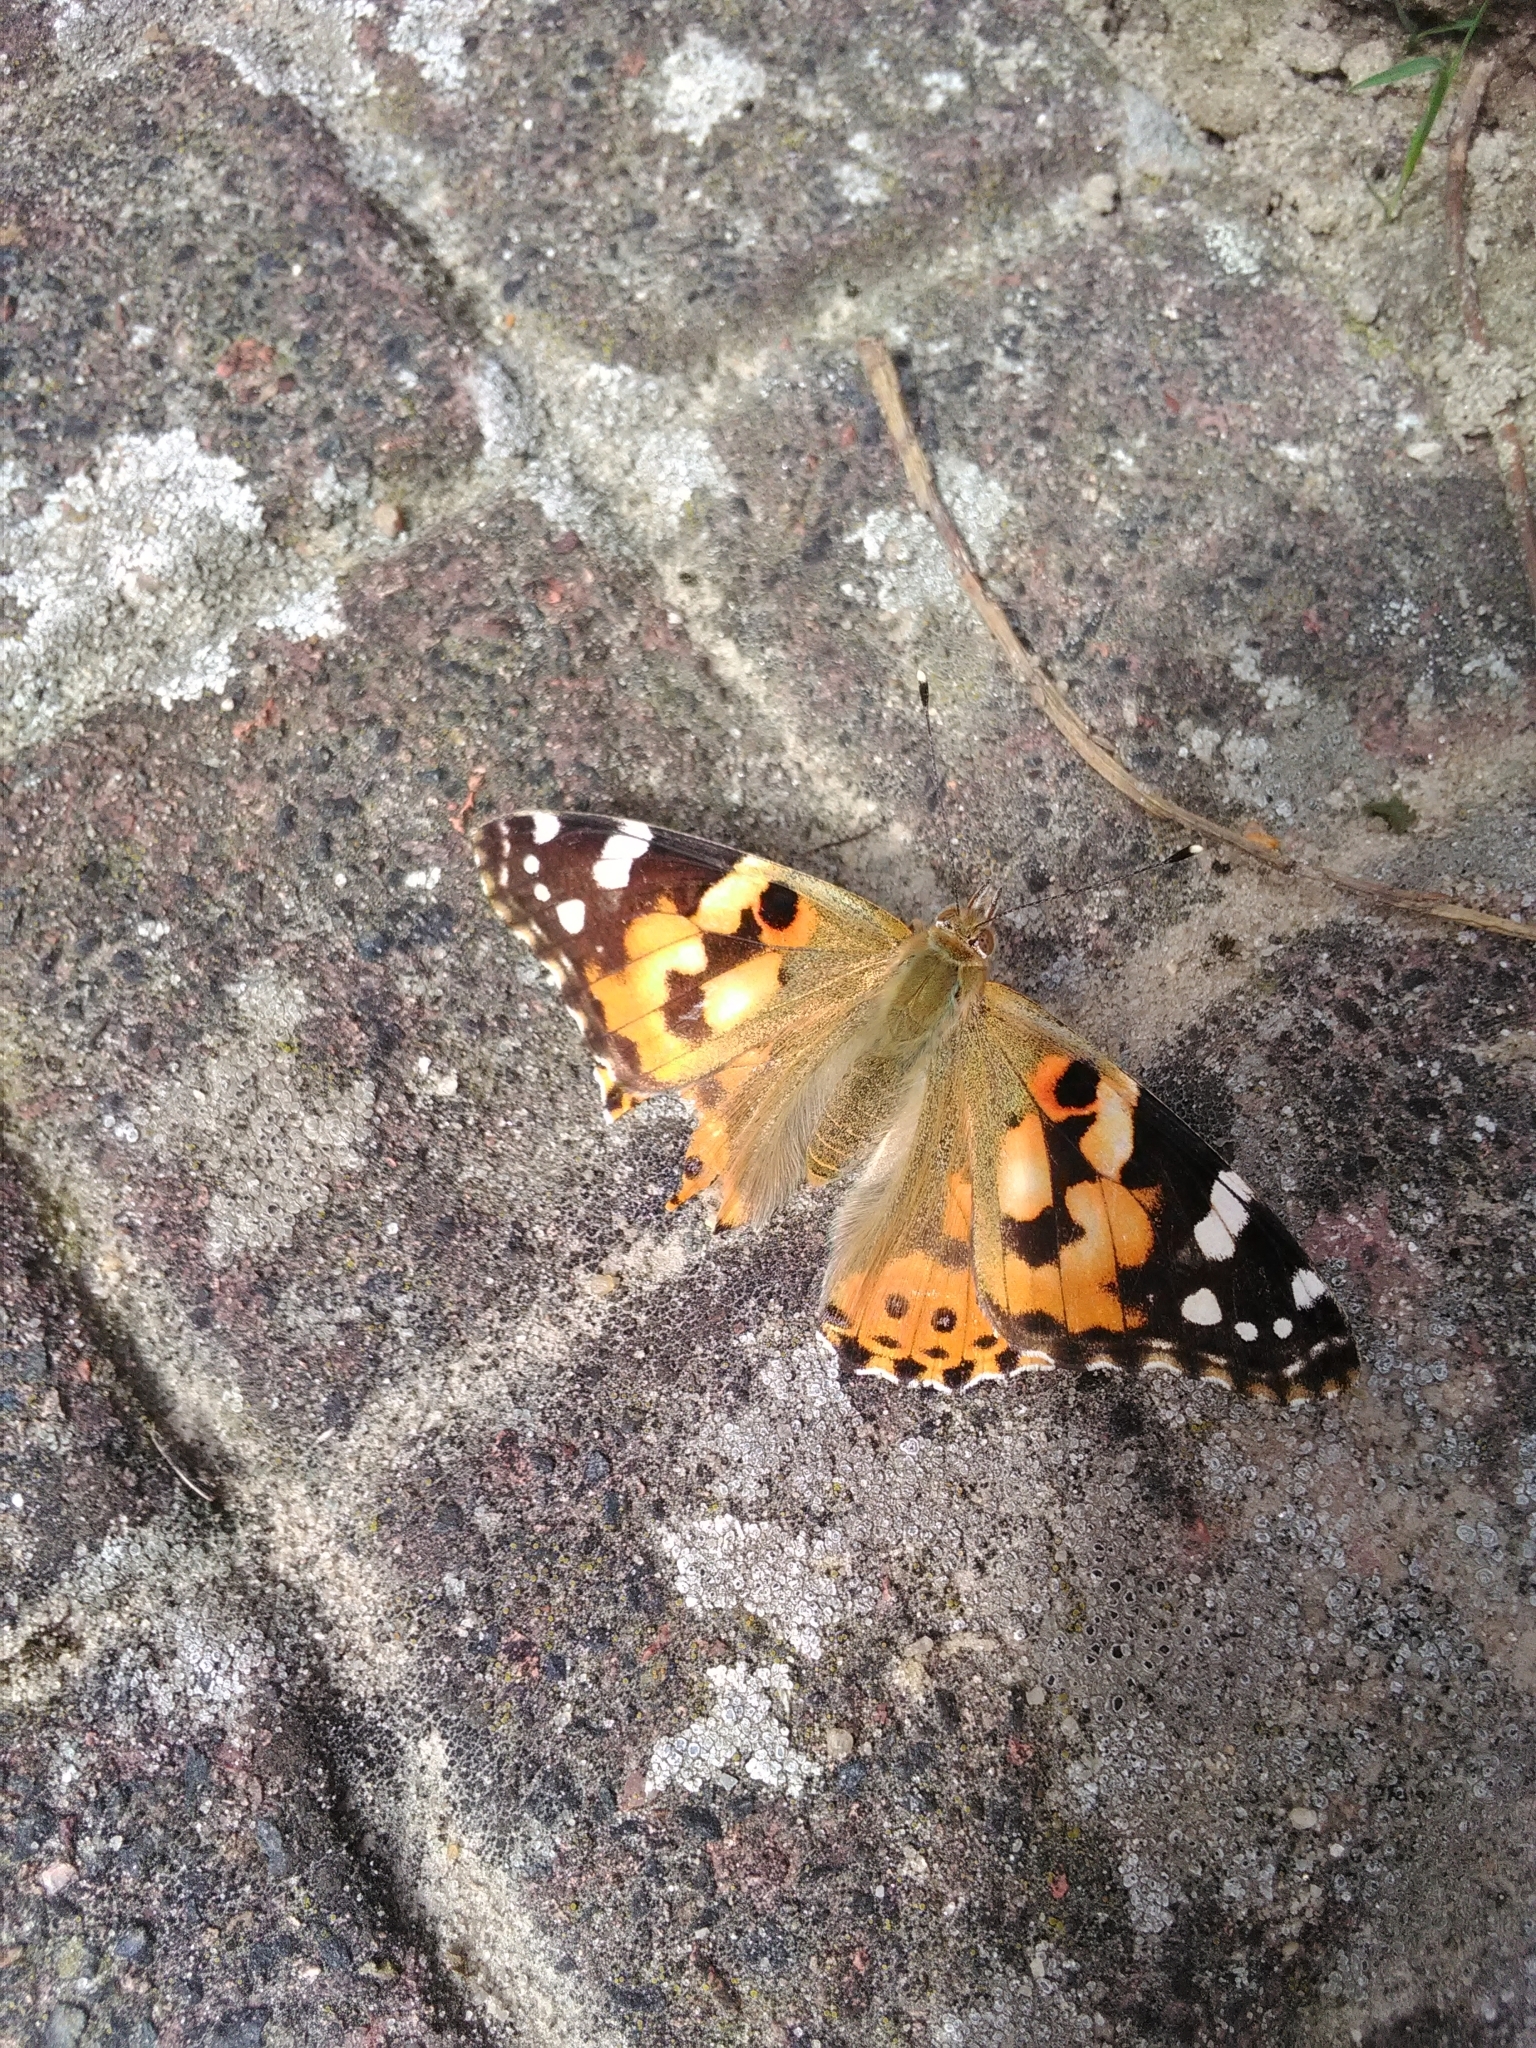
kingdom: Animalia
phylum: Arthropoda
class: Insecta
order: Lepidoptera
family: Nymphalidae
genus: Vanessa
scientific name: Vanessa cardui
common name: Painted lady
